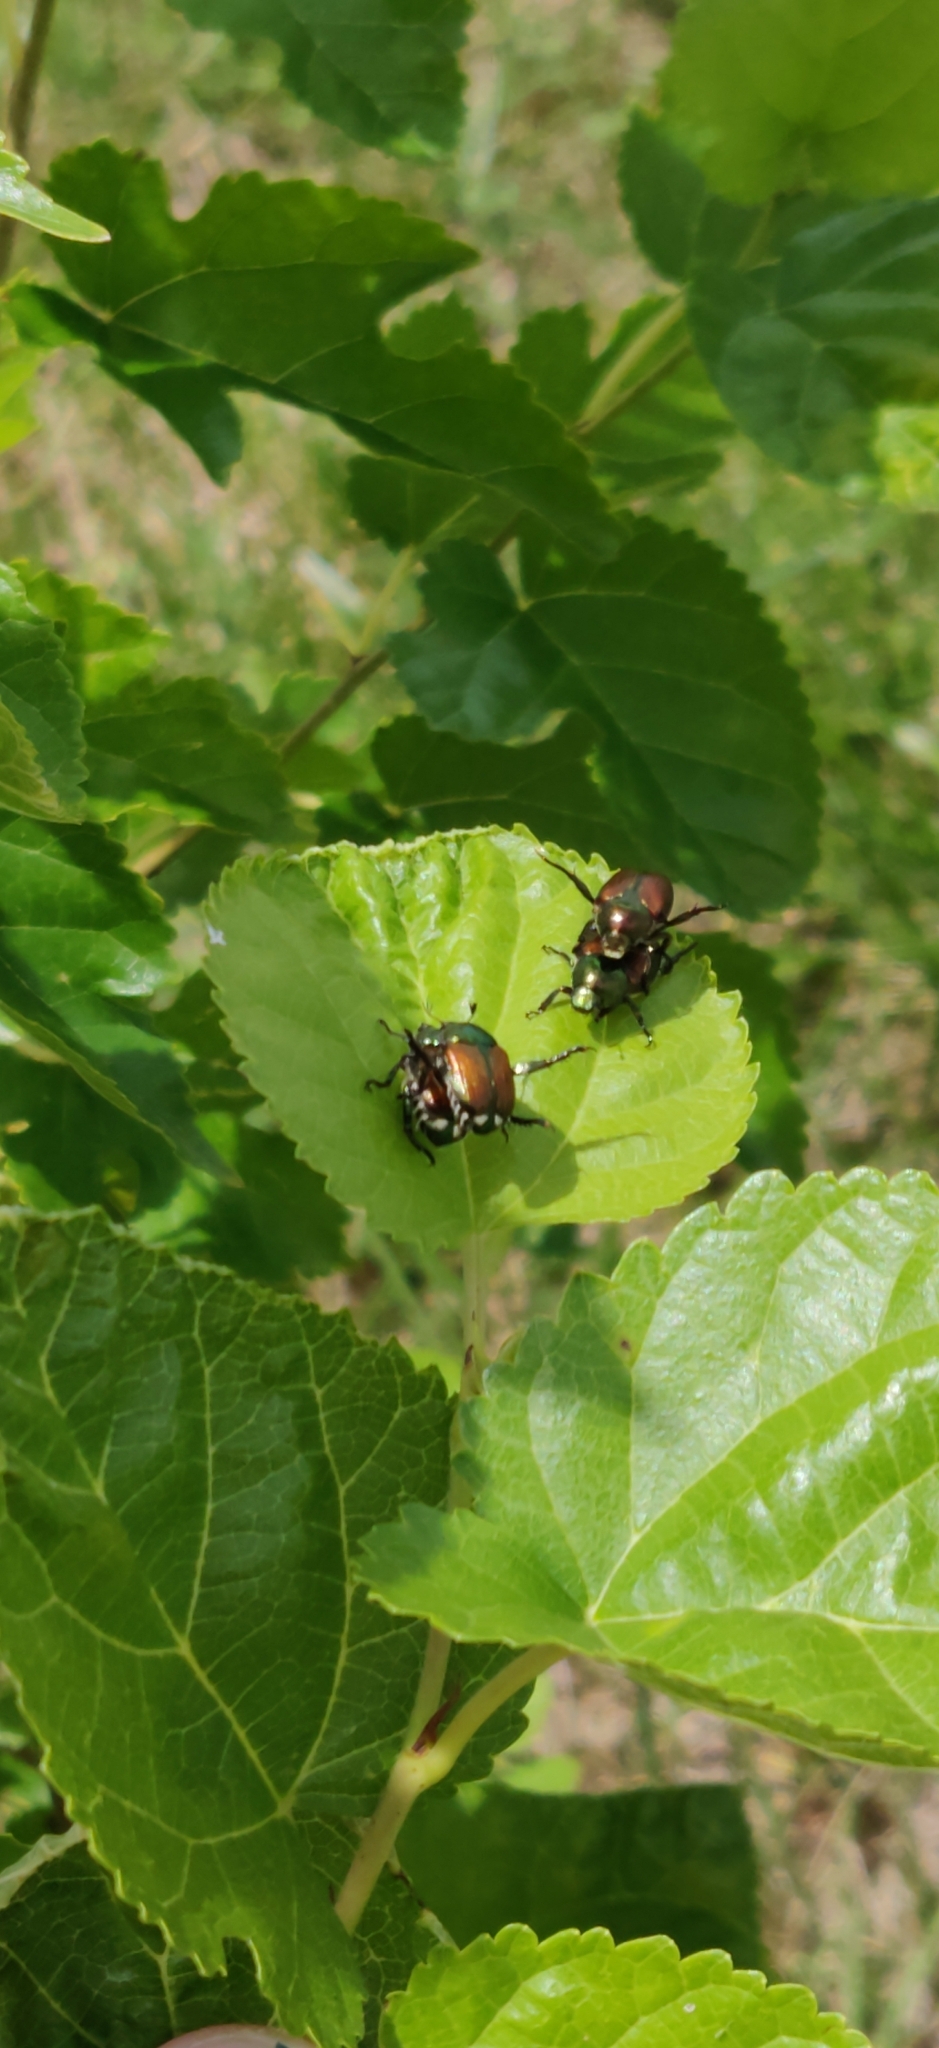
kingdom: Animalia
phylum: Arthropoda
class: Insecta
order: Coleoptera
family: Scarabaeidae
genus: Popillia
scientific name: Popillia japonica
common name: Japanese beetle
